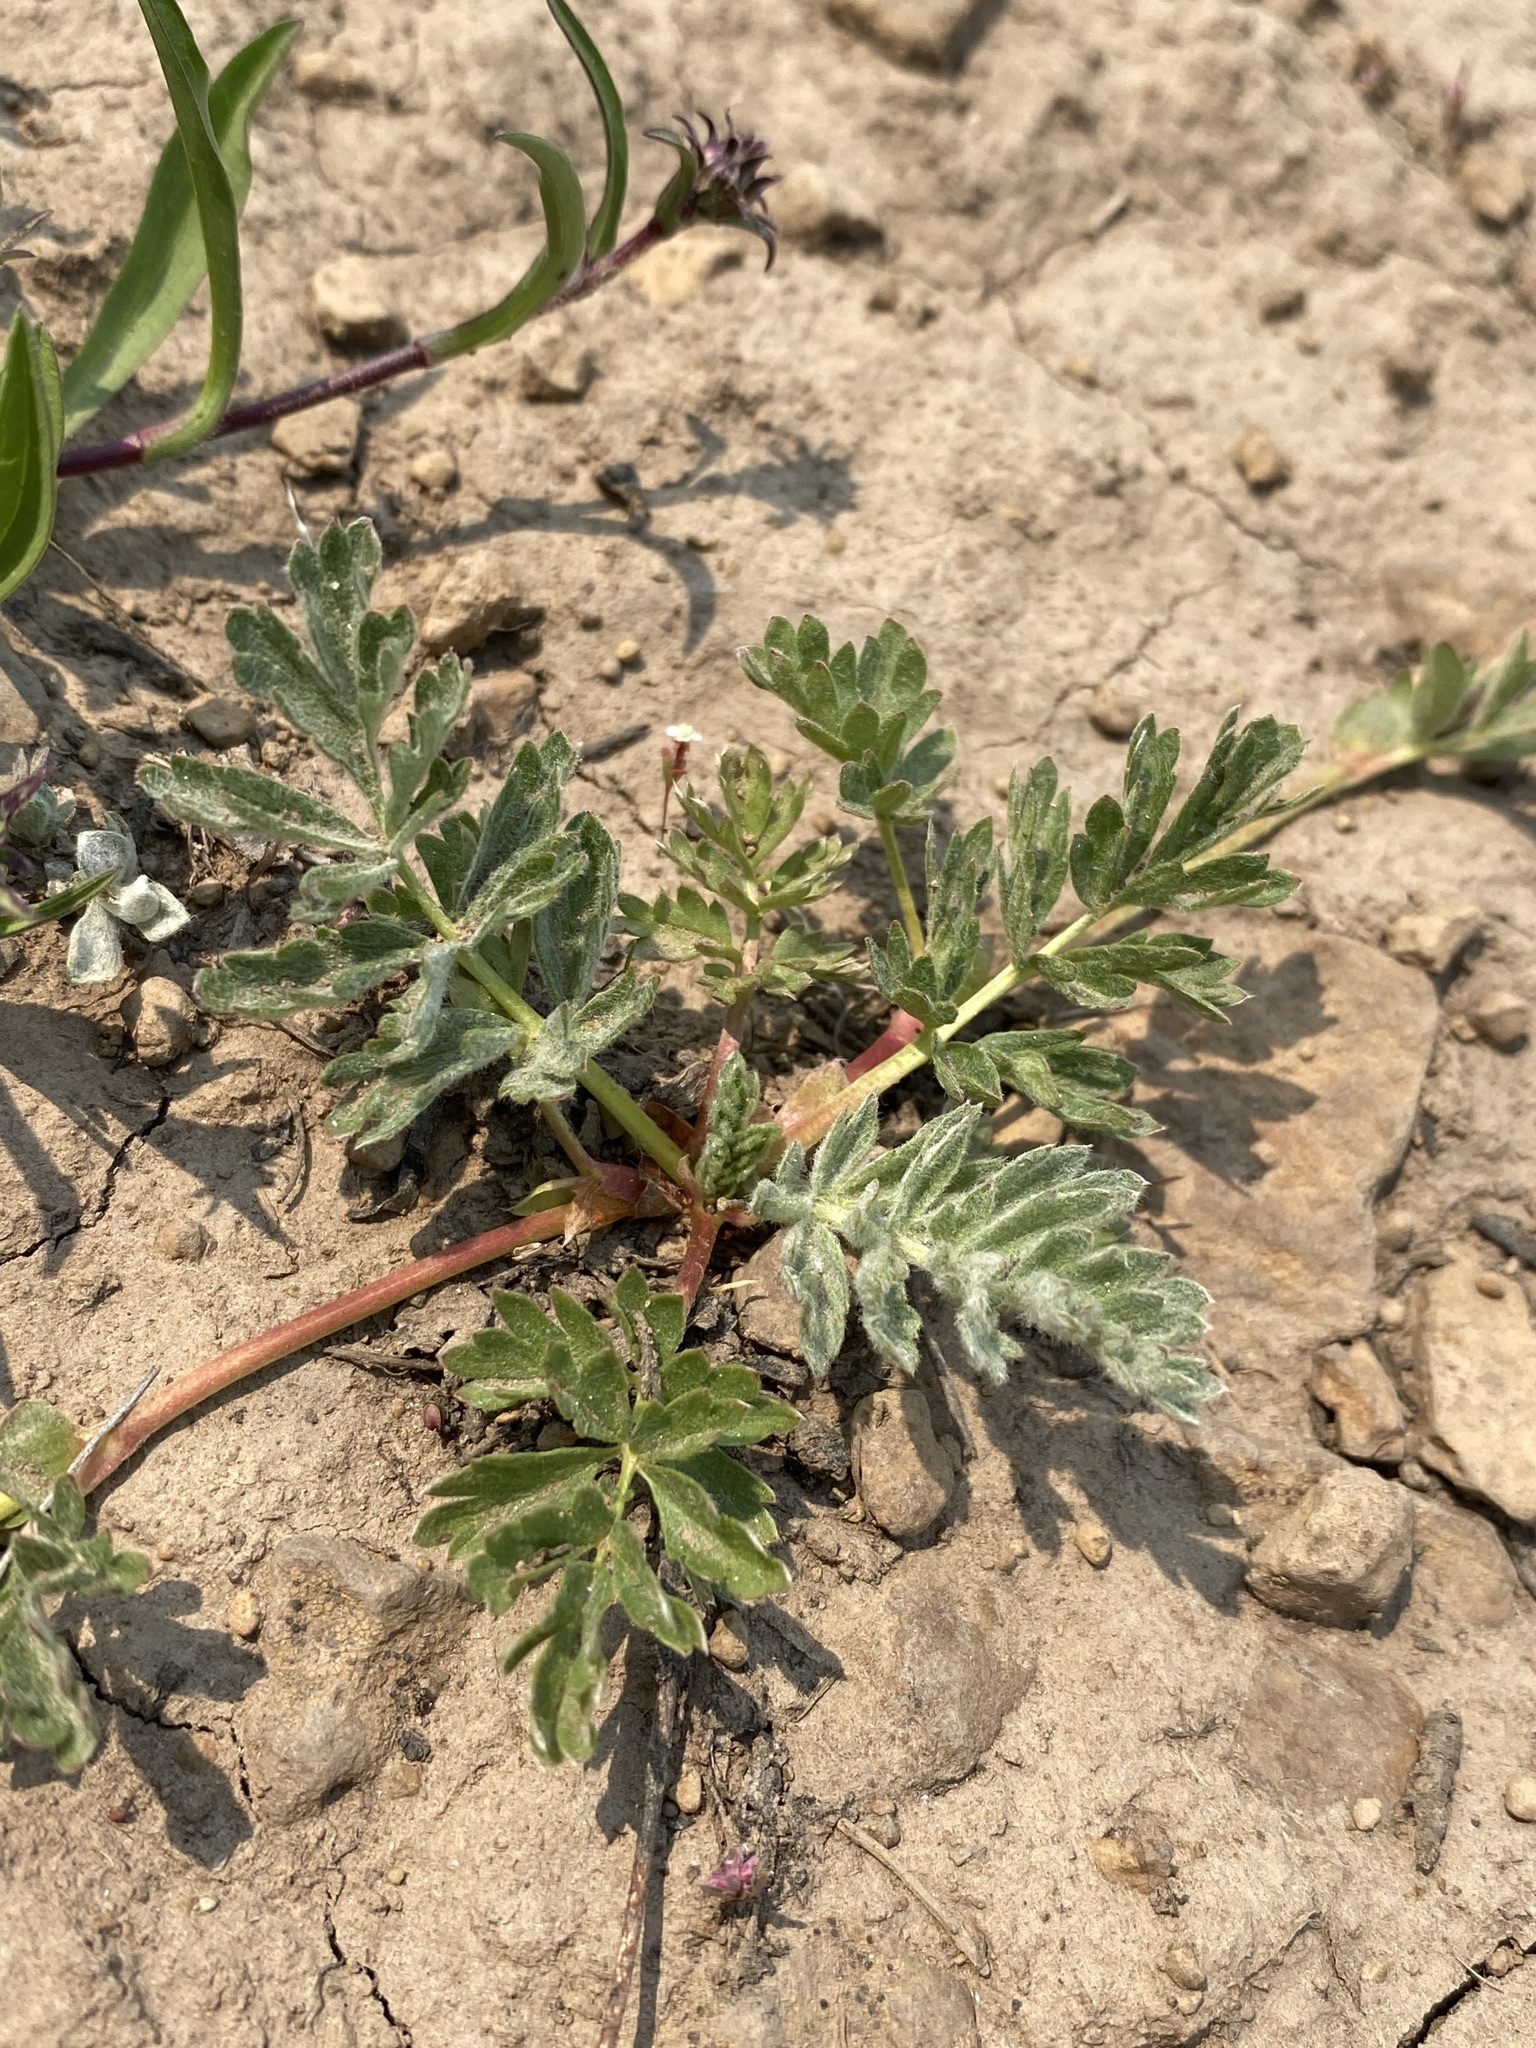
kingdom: Plantae
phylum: Tracheophyta
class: Magnoliopsida
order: Rosales
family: Rosaceae
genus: Potentilla
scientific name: Potentilla breweri
